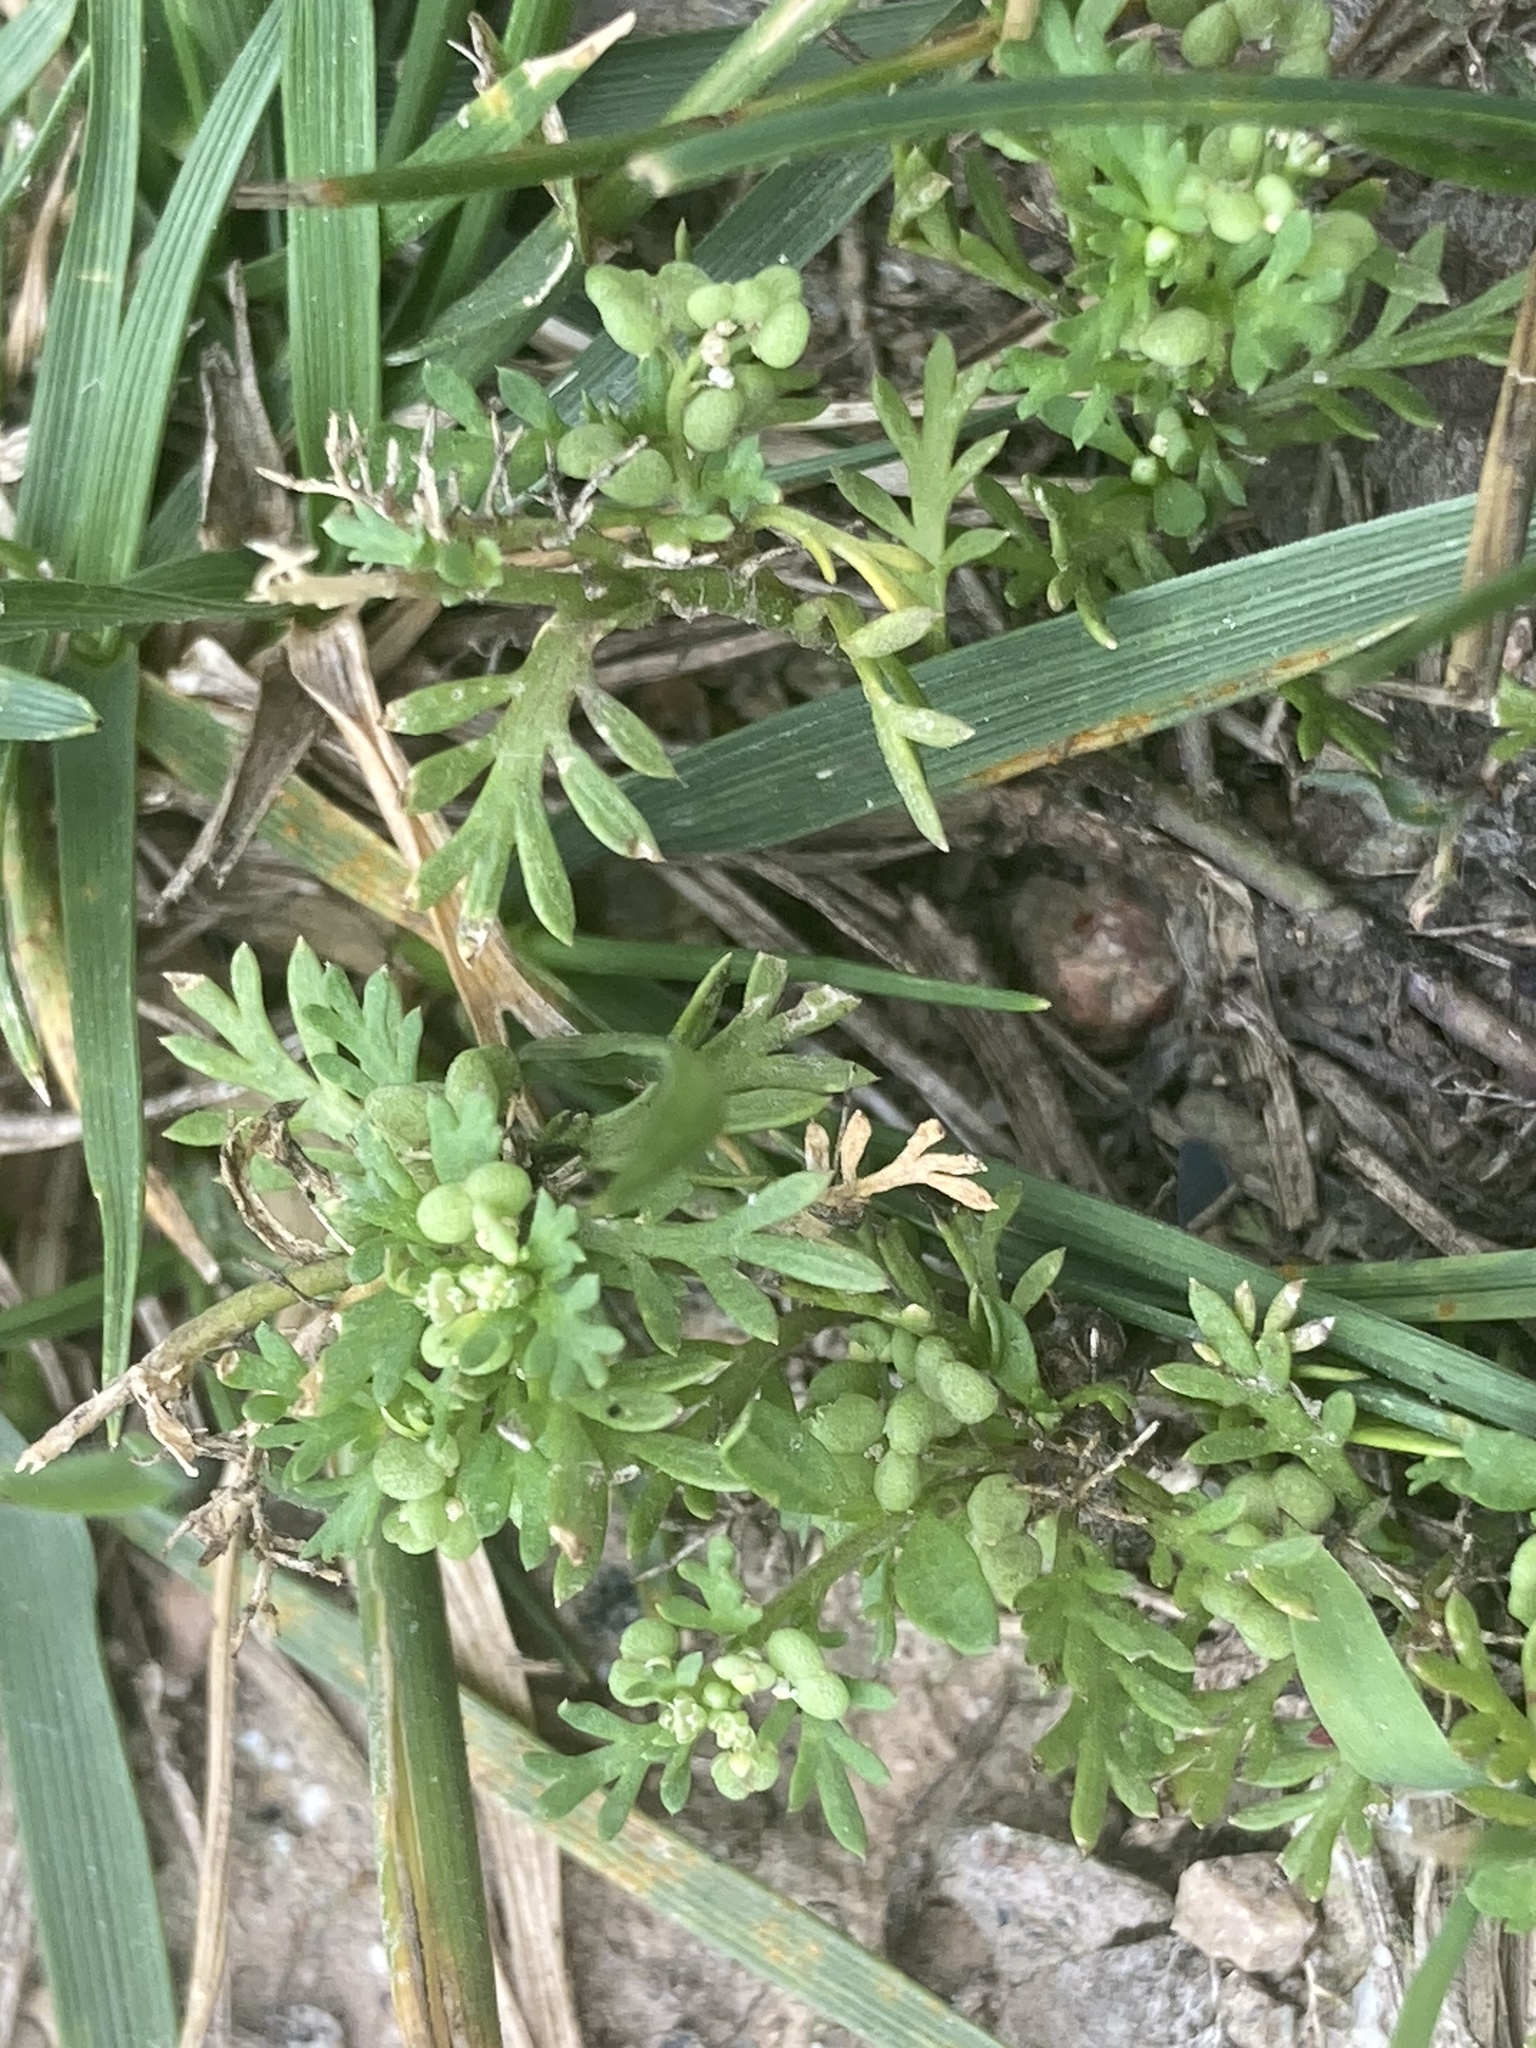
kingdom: Plantae
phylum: Tracheophyta
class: Magnoliopsida
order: Brassicales
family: Brassicaceae
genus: Lepidium
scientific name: Lepidium didymum
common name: Lesser swinecress
